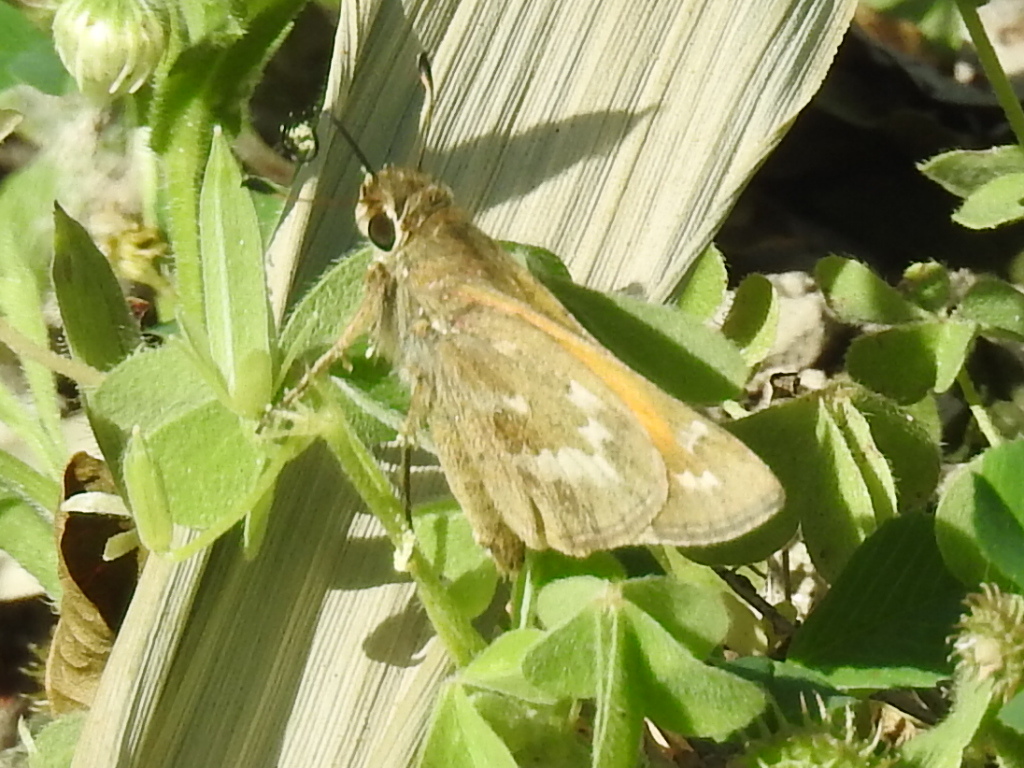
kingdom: Animalia
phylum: Arthropoda
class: Insecta
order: Lepidoptera
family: Hesperiidae
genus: Atalopedes
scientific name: Atalopedes
